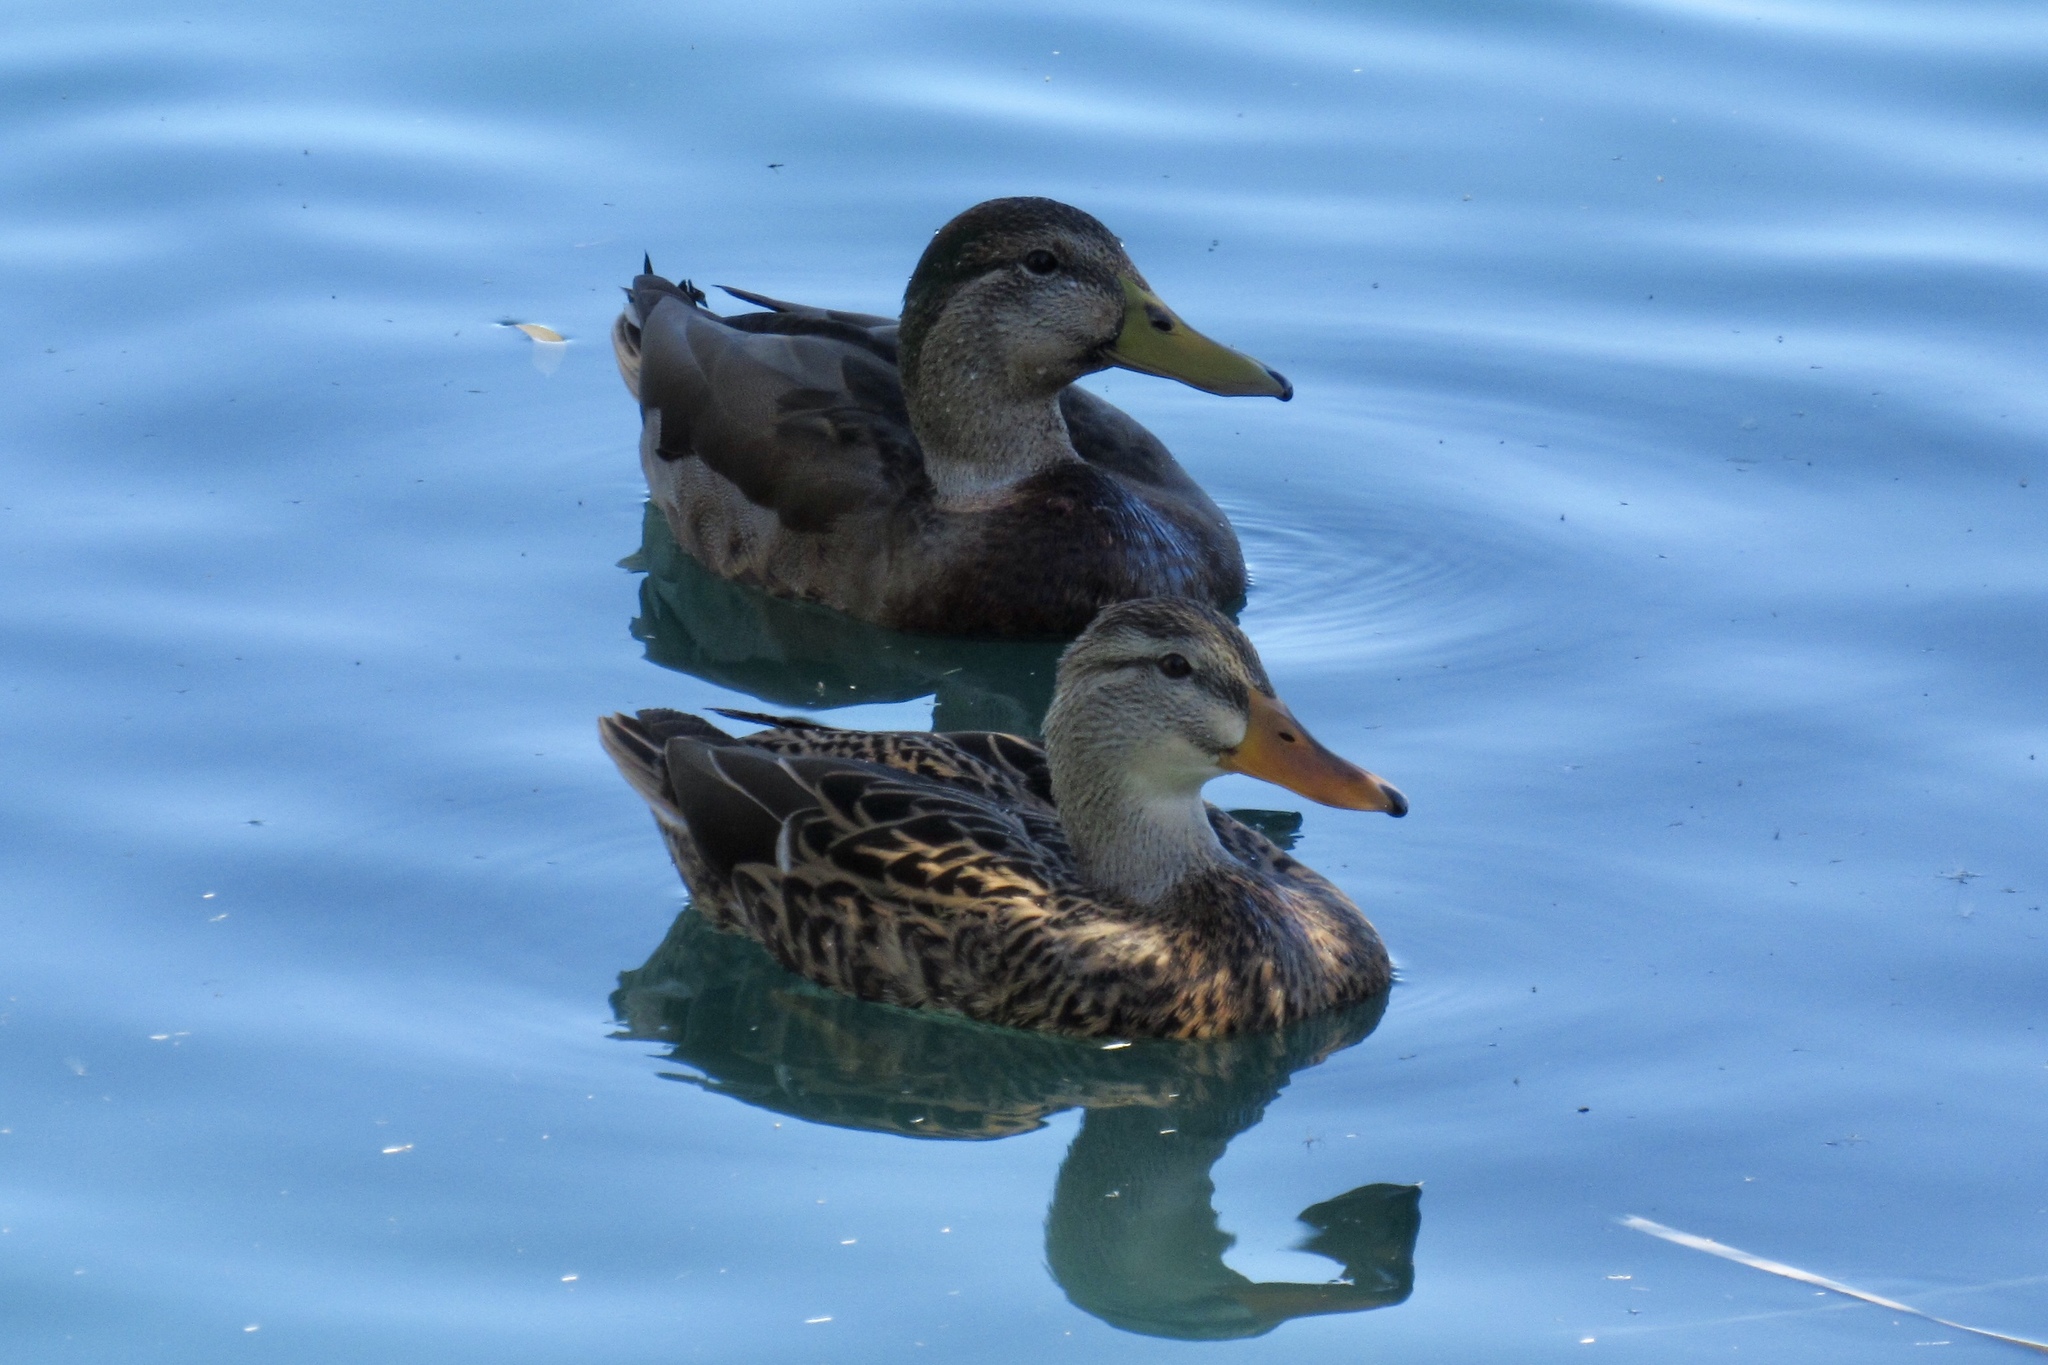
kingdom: Animalia
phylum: Chordata
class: Aves
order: Anseriformes
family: Anatidae
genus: Anas
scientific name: Anas
